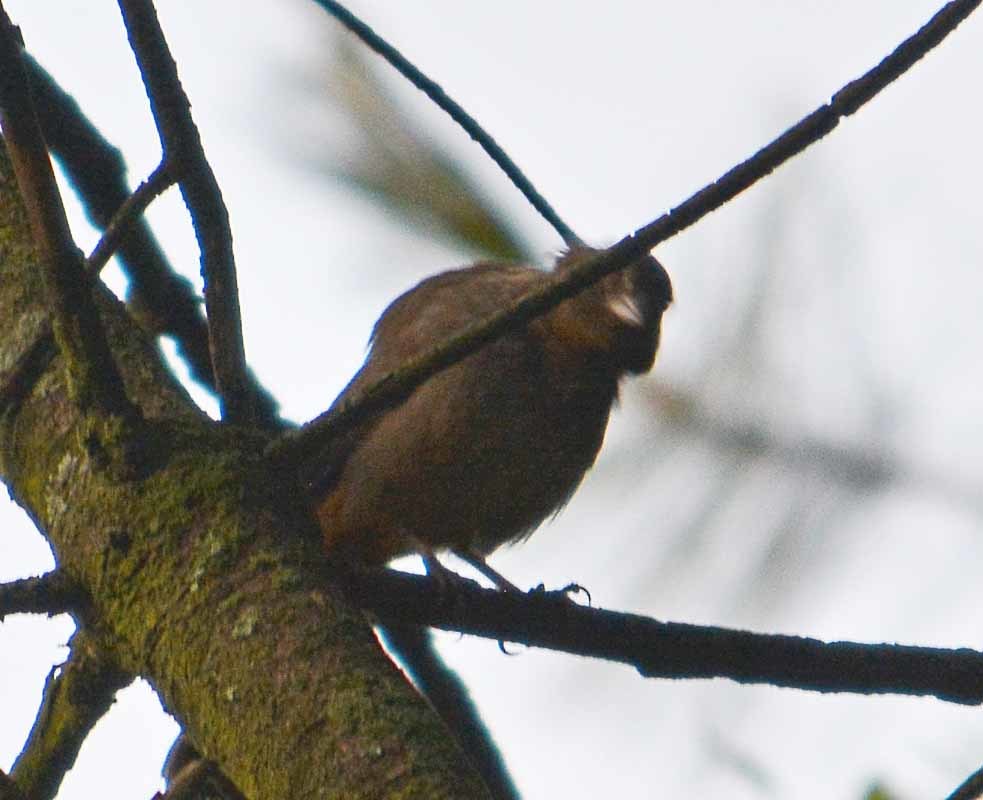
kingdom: Animalia
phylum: Chordata
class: Aves
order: Passeriformes
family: Passerellidae
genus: Melozone
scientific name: Melozone fusca
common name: Canyon towhee
